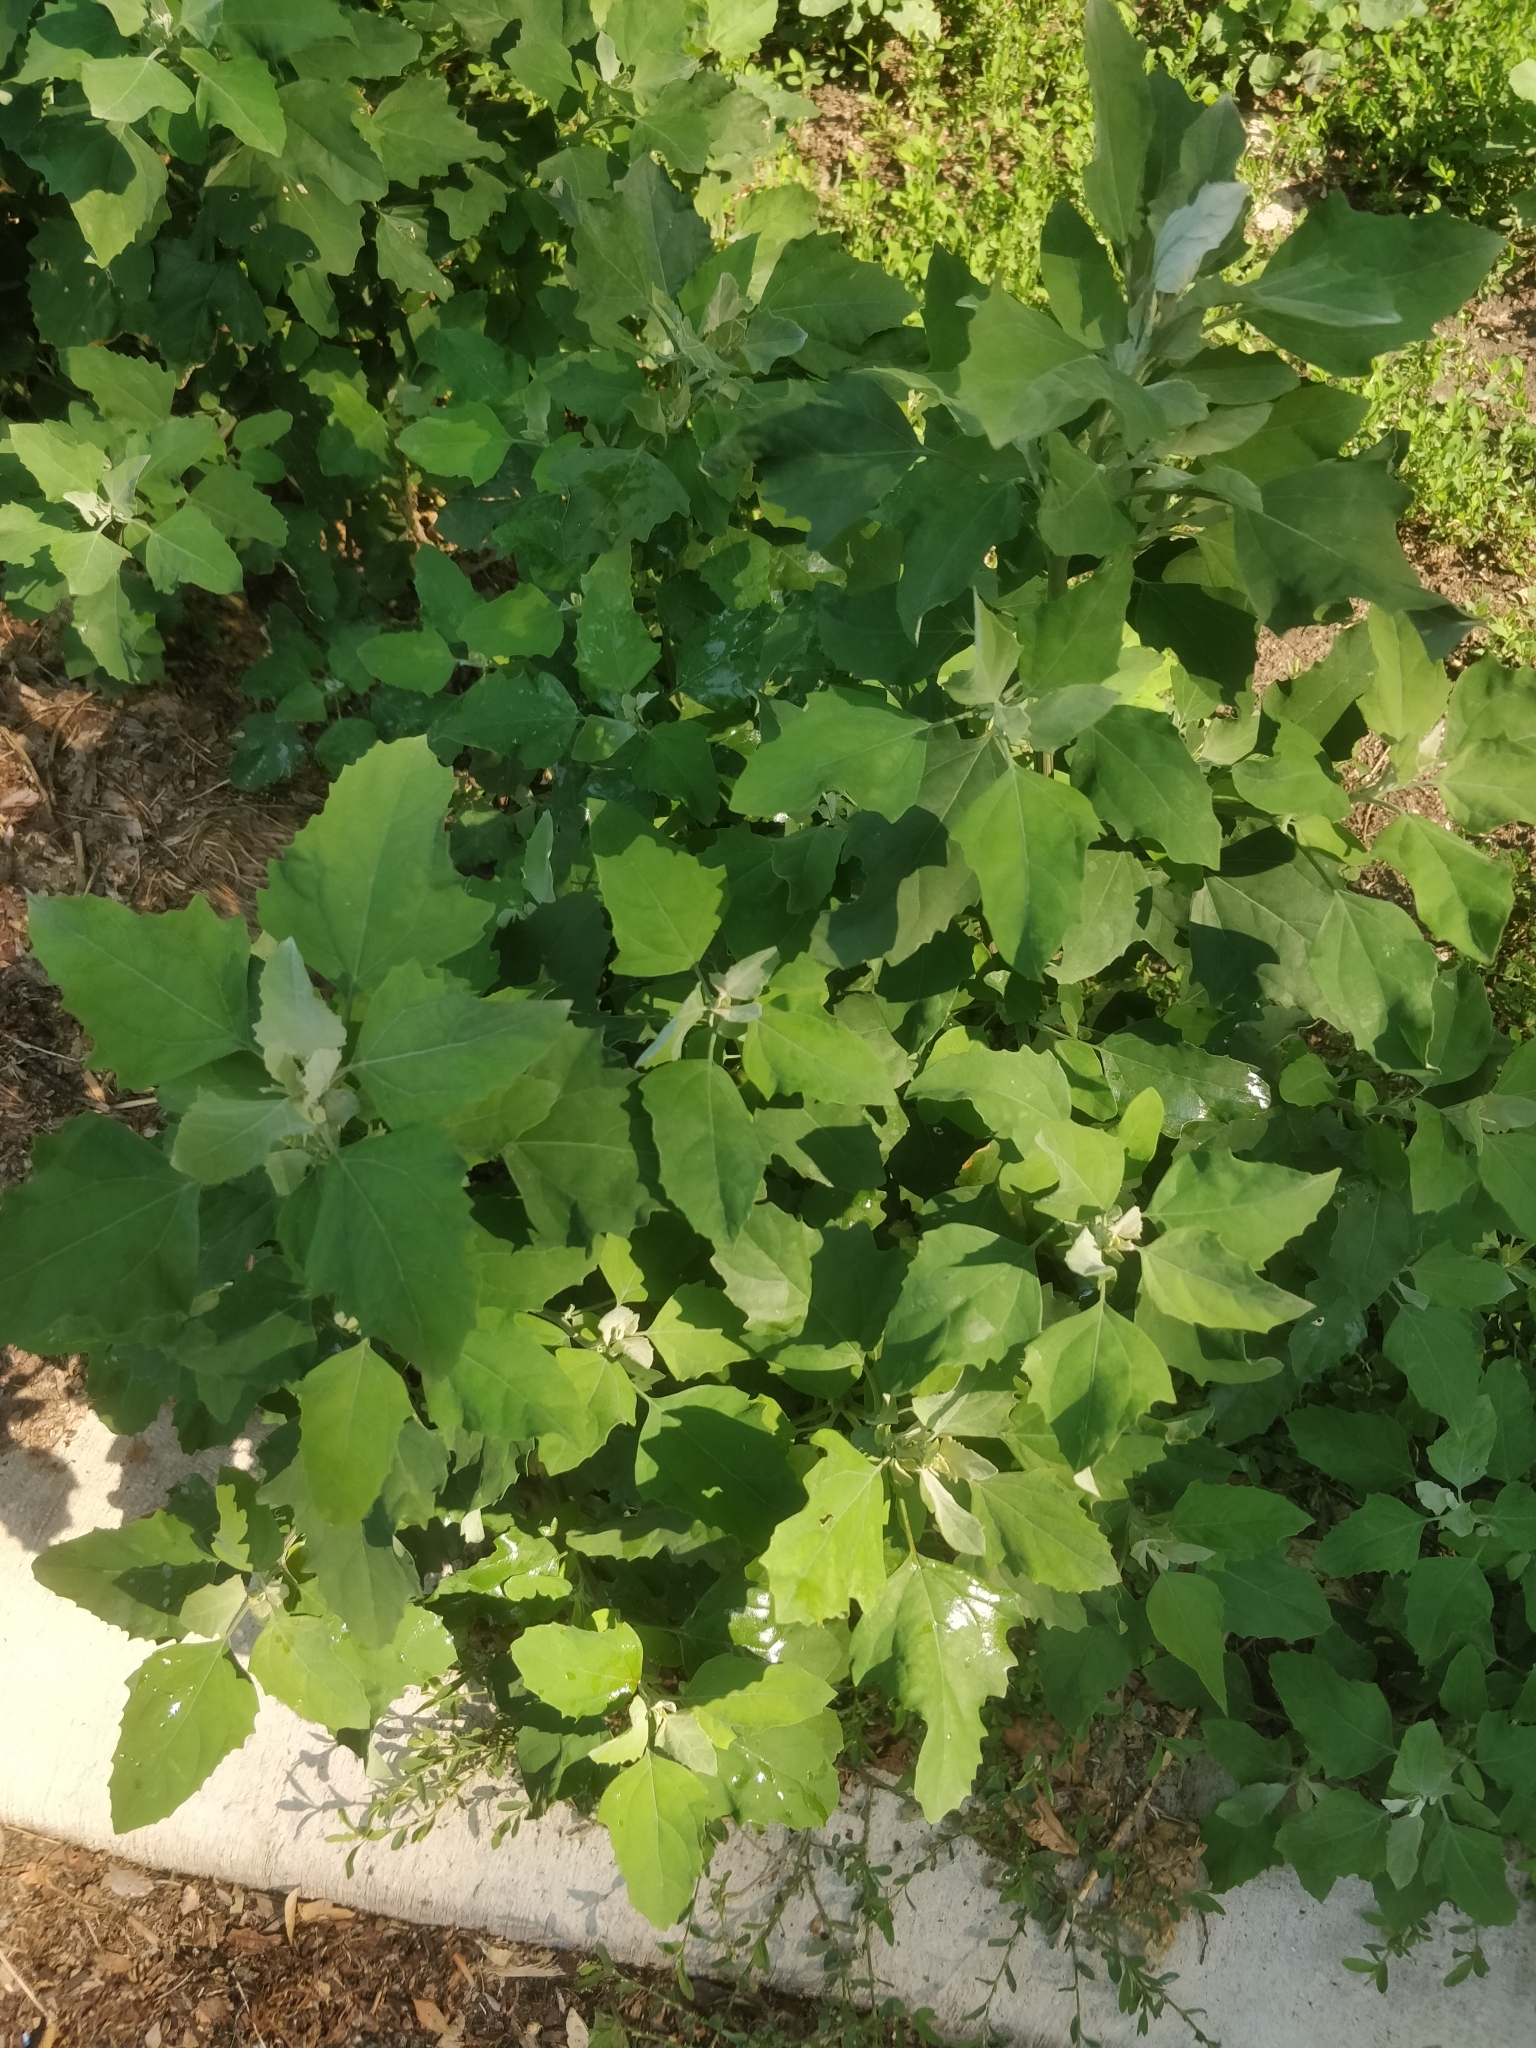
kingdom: Plantae
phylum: Tracheophyta
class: Magnoliopsida
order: Caryophyllales
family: Amaranthaceae
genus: Chenopodium
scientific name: Chenopodium album
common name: Fat-hen
